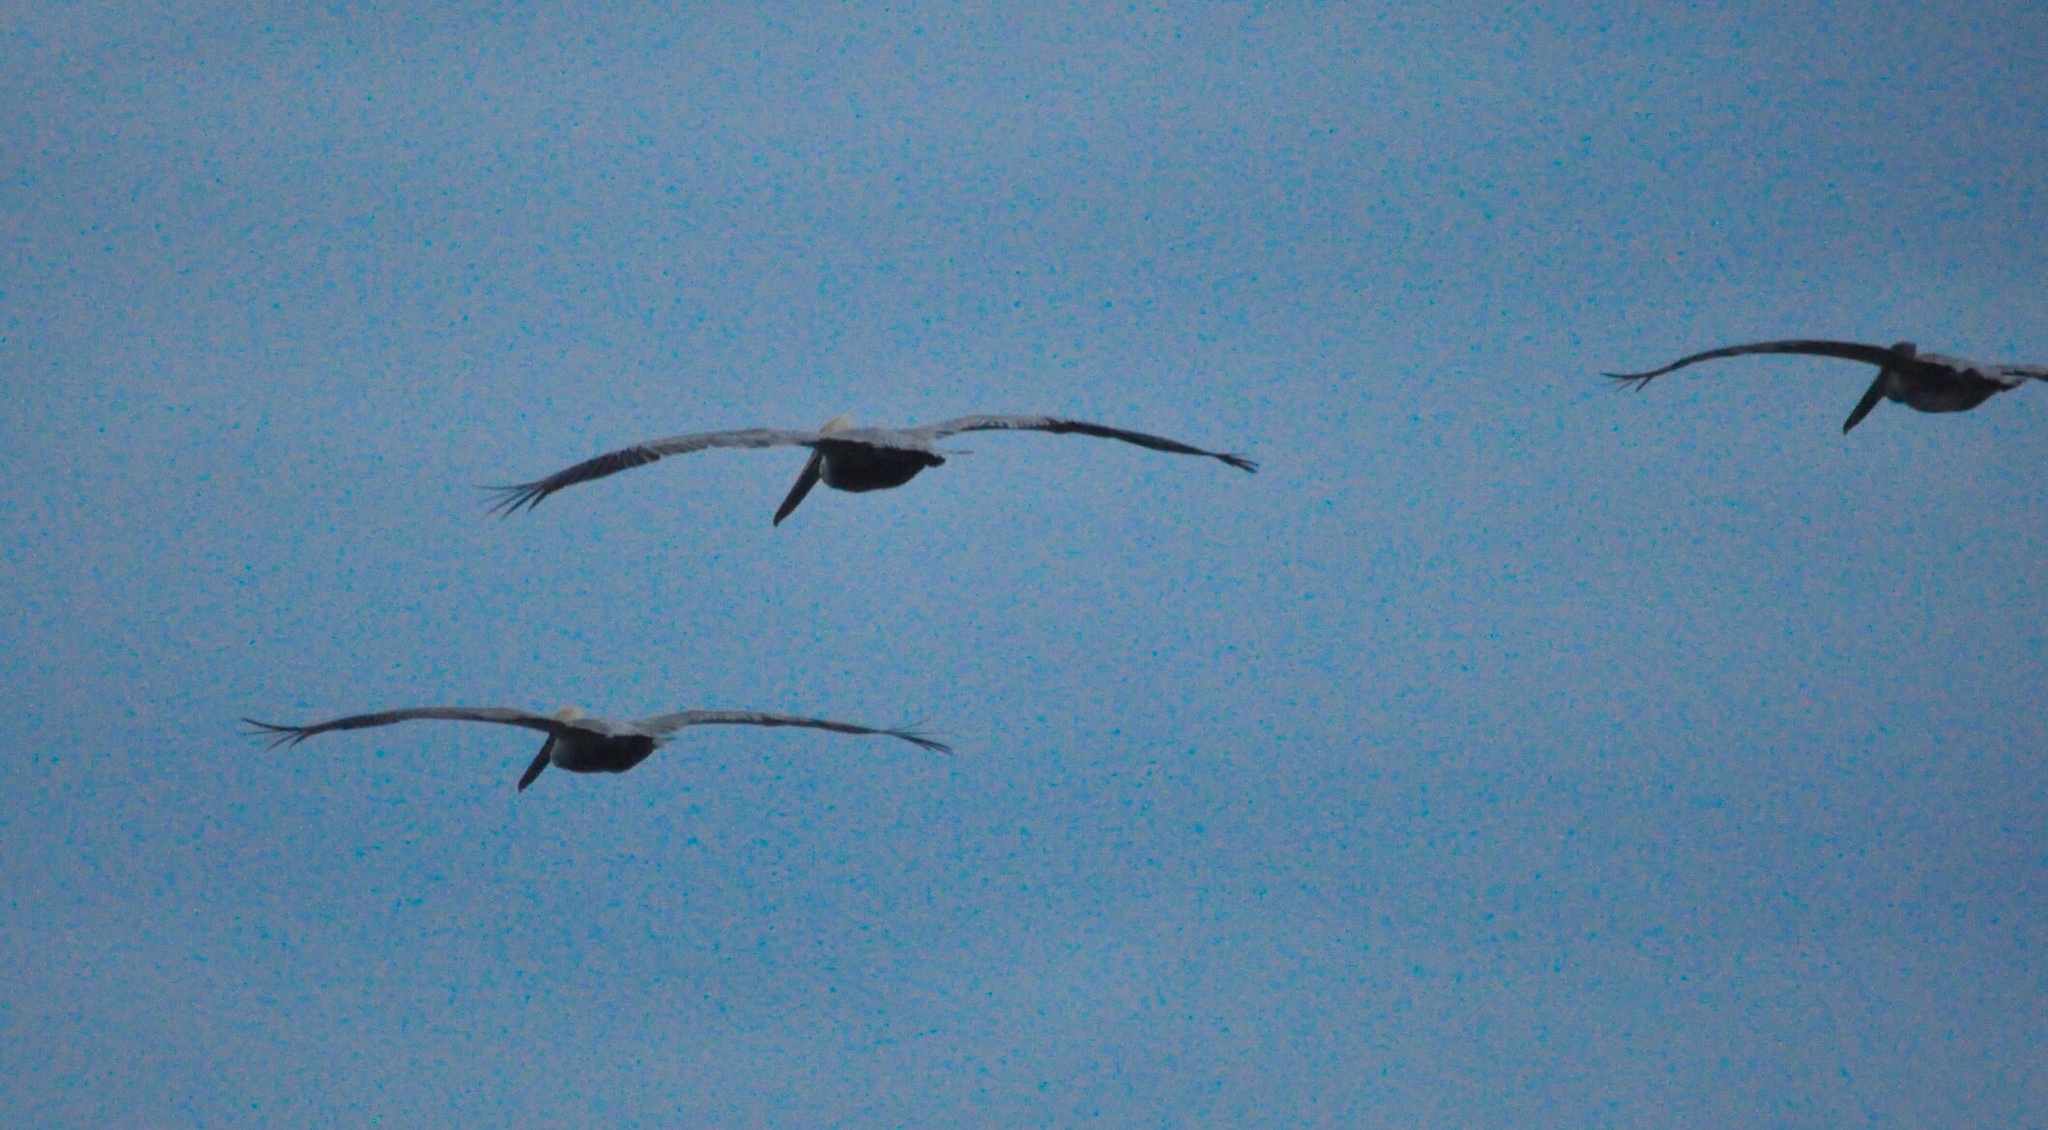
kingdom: Animalia
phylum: Chordata
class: Aves
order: Pelecaniformes
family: Pelecanidae
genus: Pelecanus
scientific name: Pelecanus occidentalis
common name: Brown pelican
